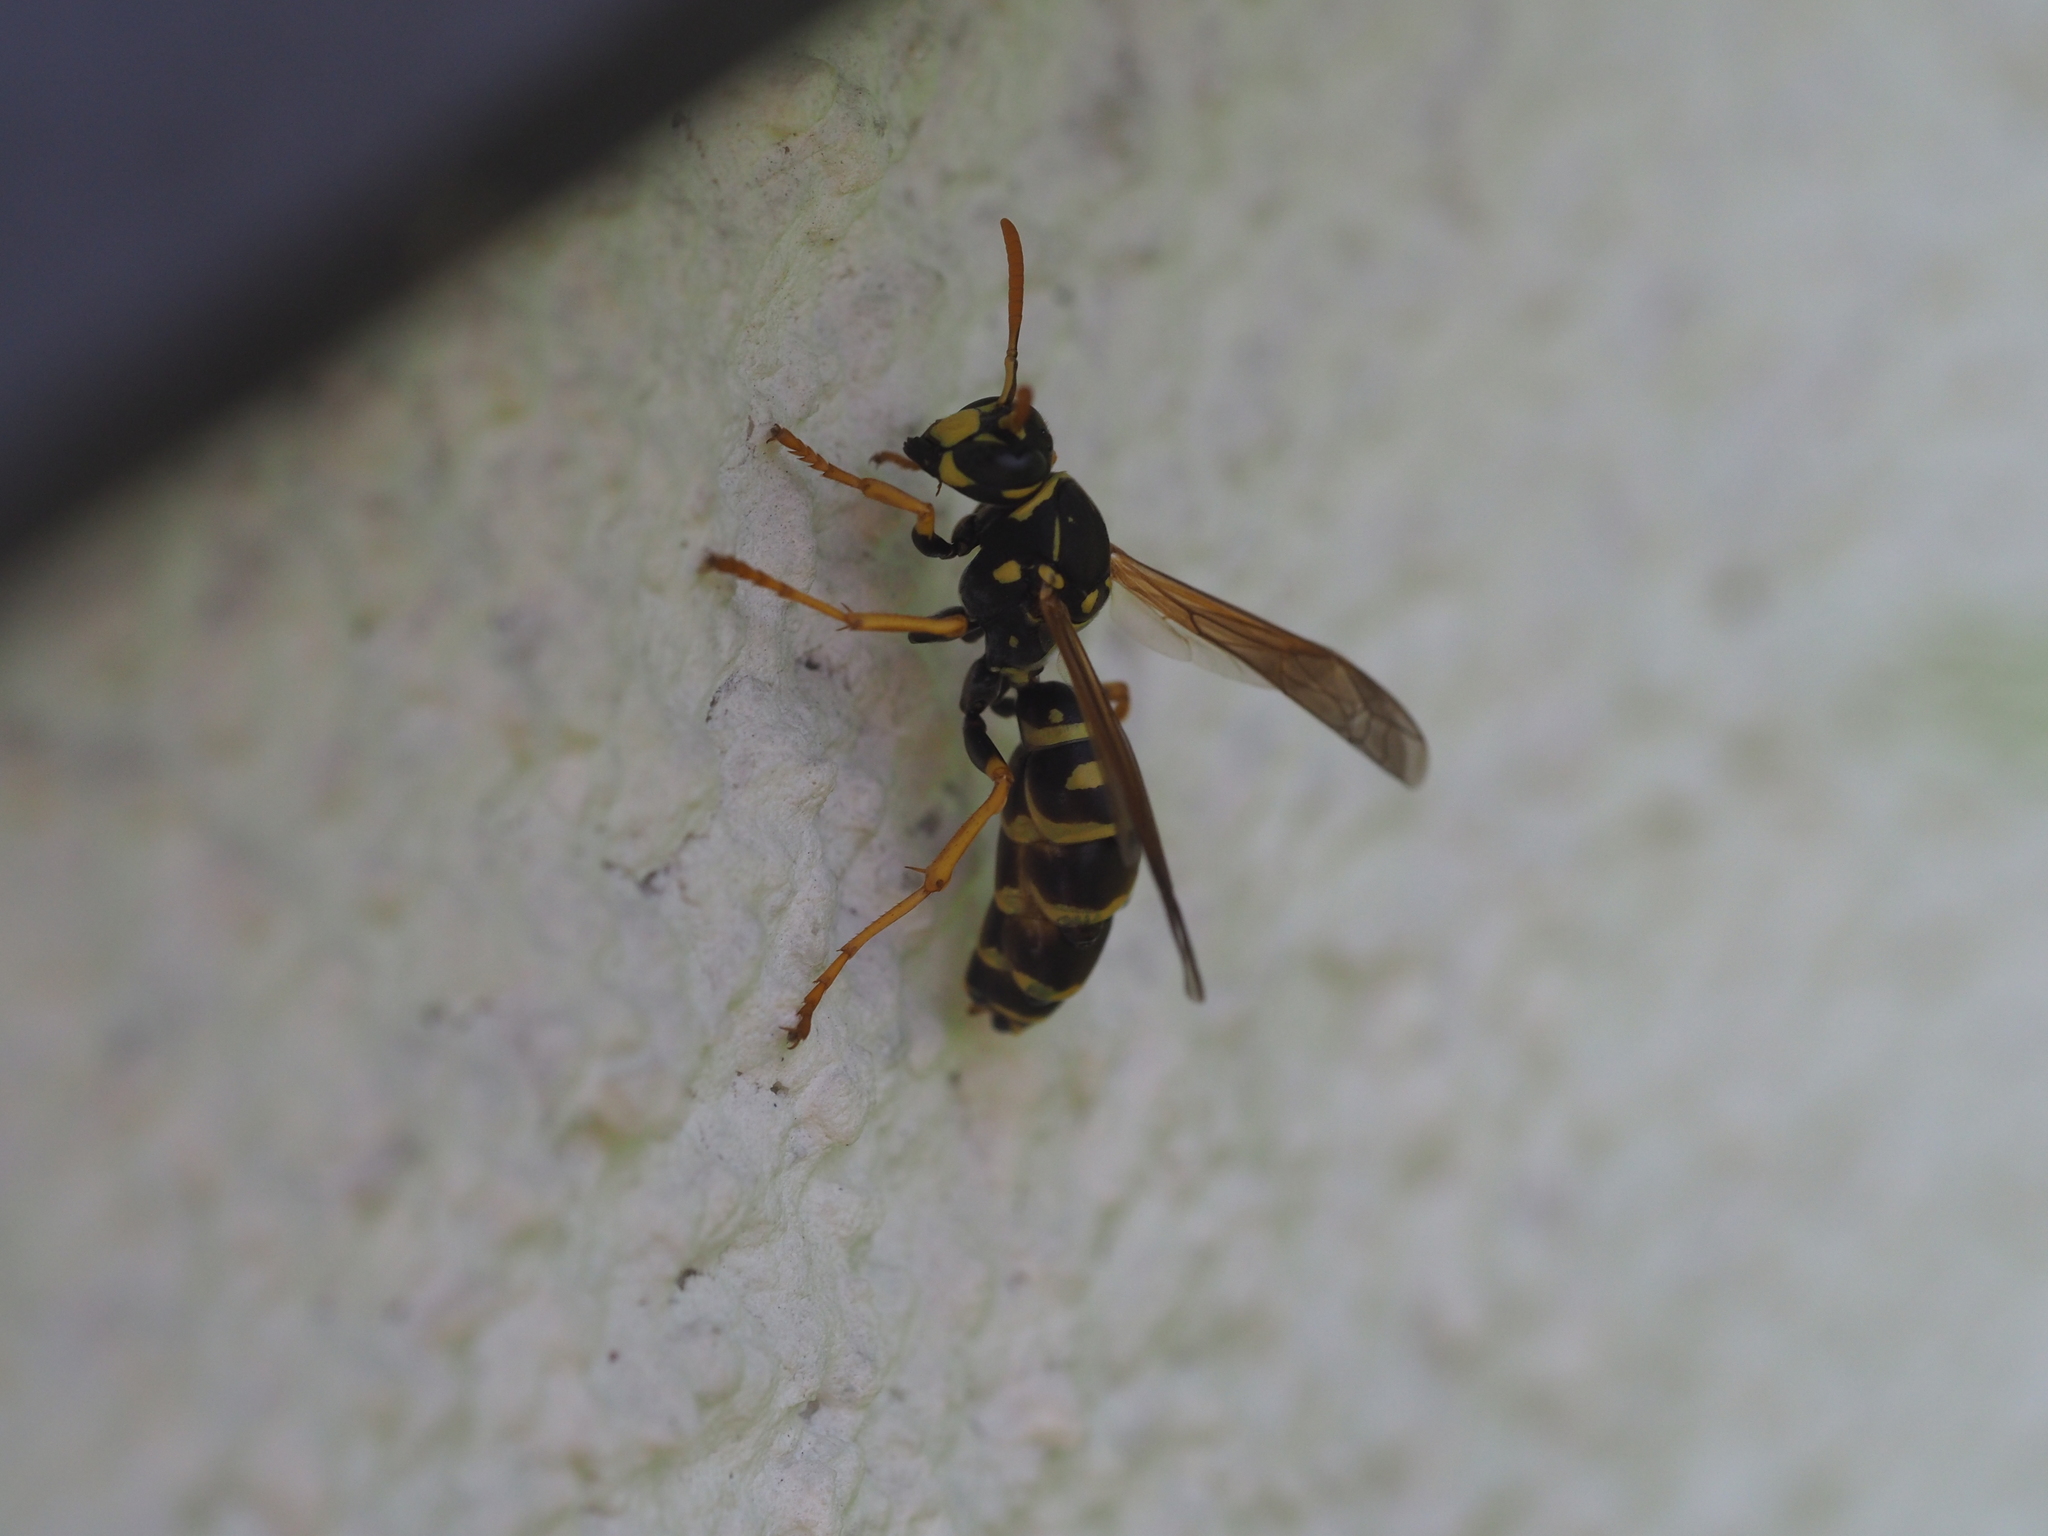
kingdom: Animalia
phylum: Arthropoda
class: Insecta
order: Hymenoptera
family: Eumenidae
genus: Polistes
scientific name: Polistes dominula
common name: Paper wasp
